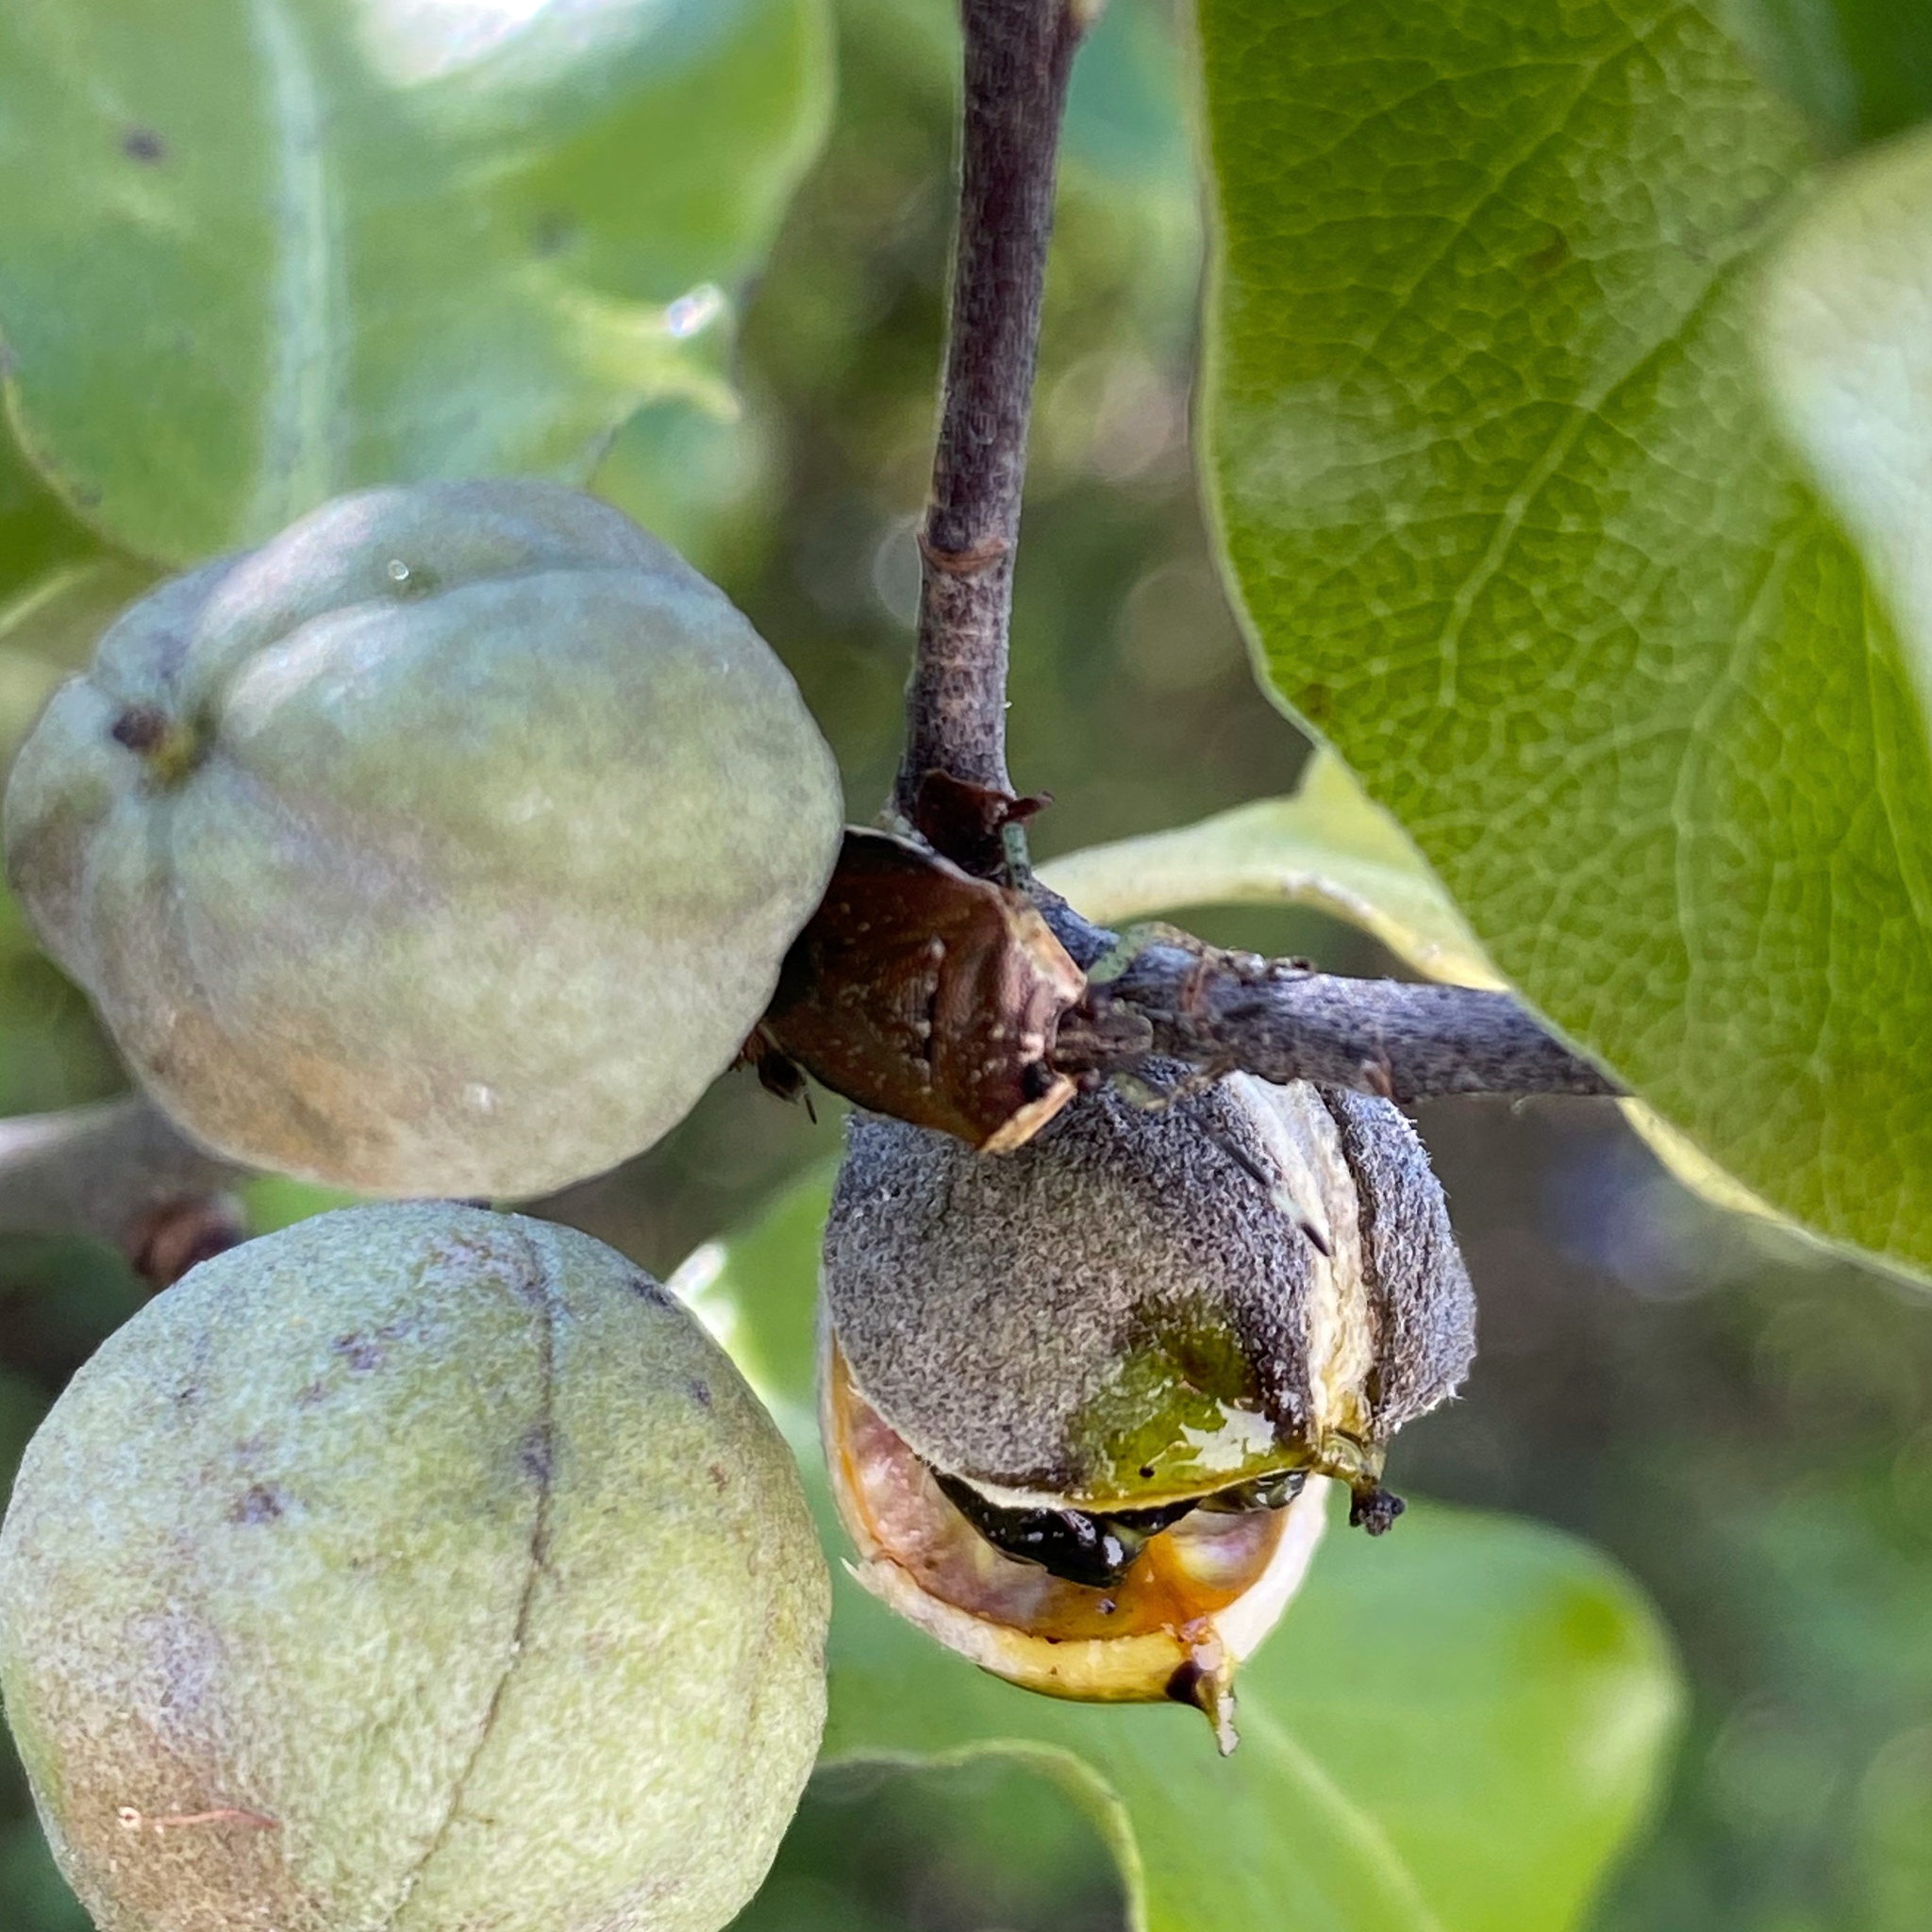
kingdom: Animalia
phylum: Arthropoda
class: Insecta
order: Hemiptera
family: Pentatomidae
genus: Monteithiella
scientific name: Monteithiella
